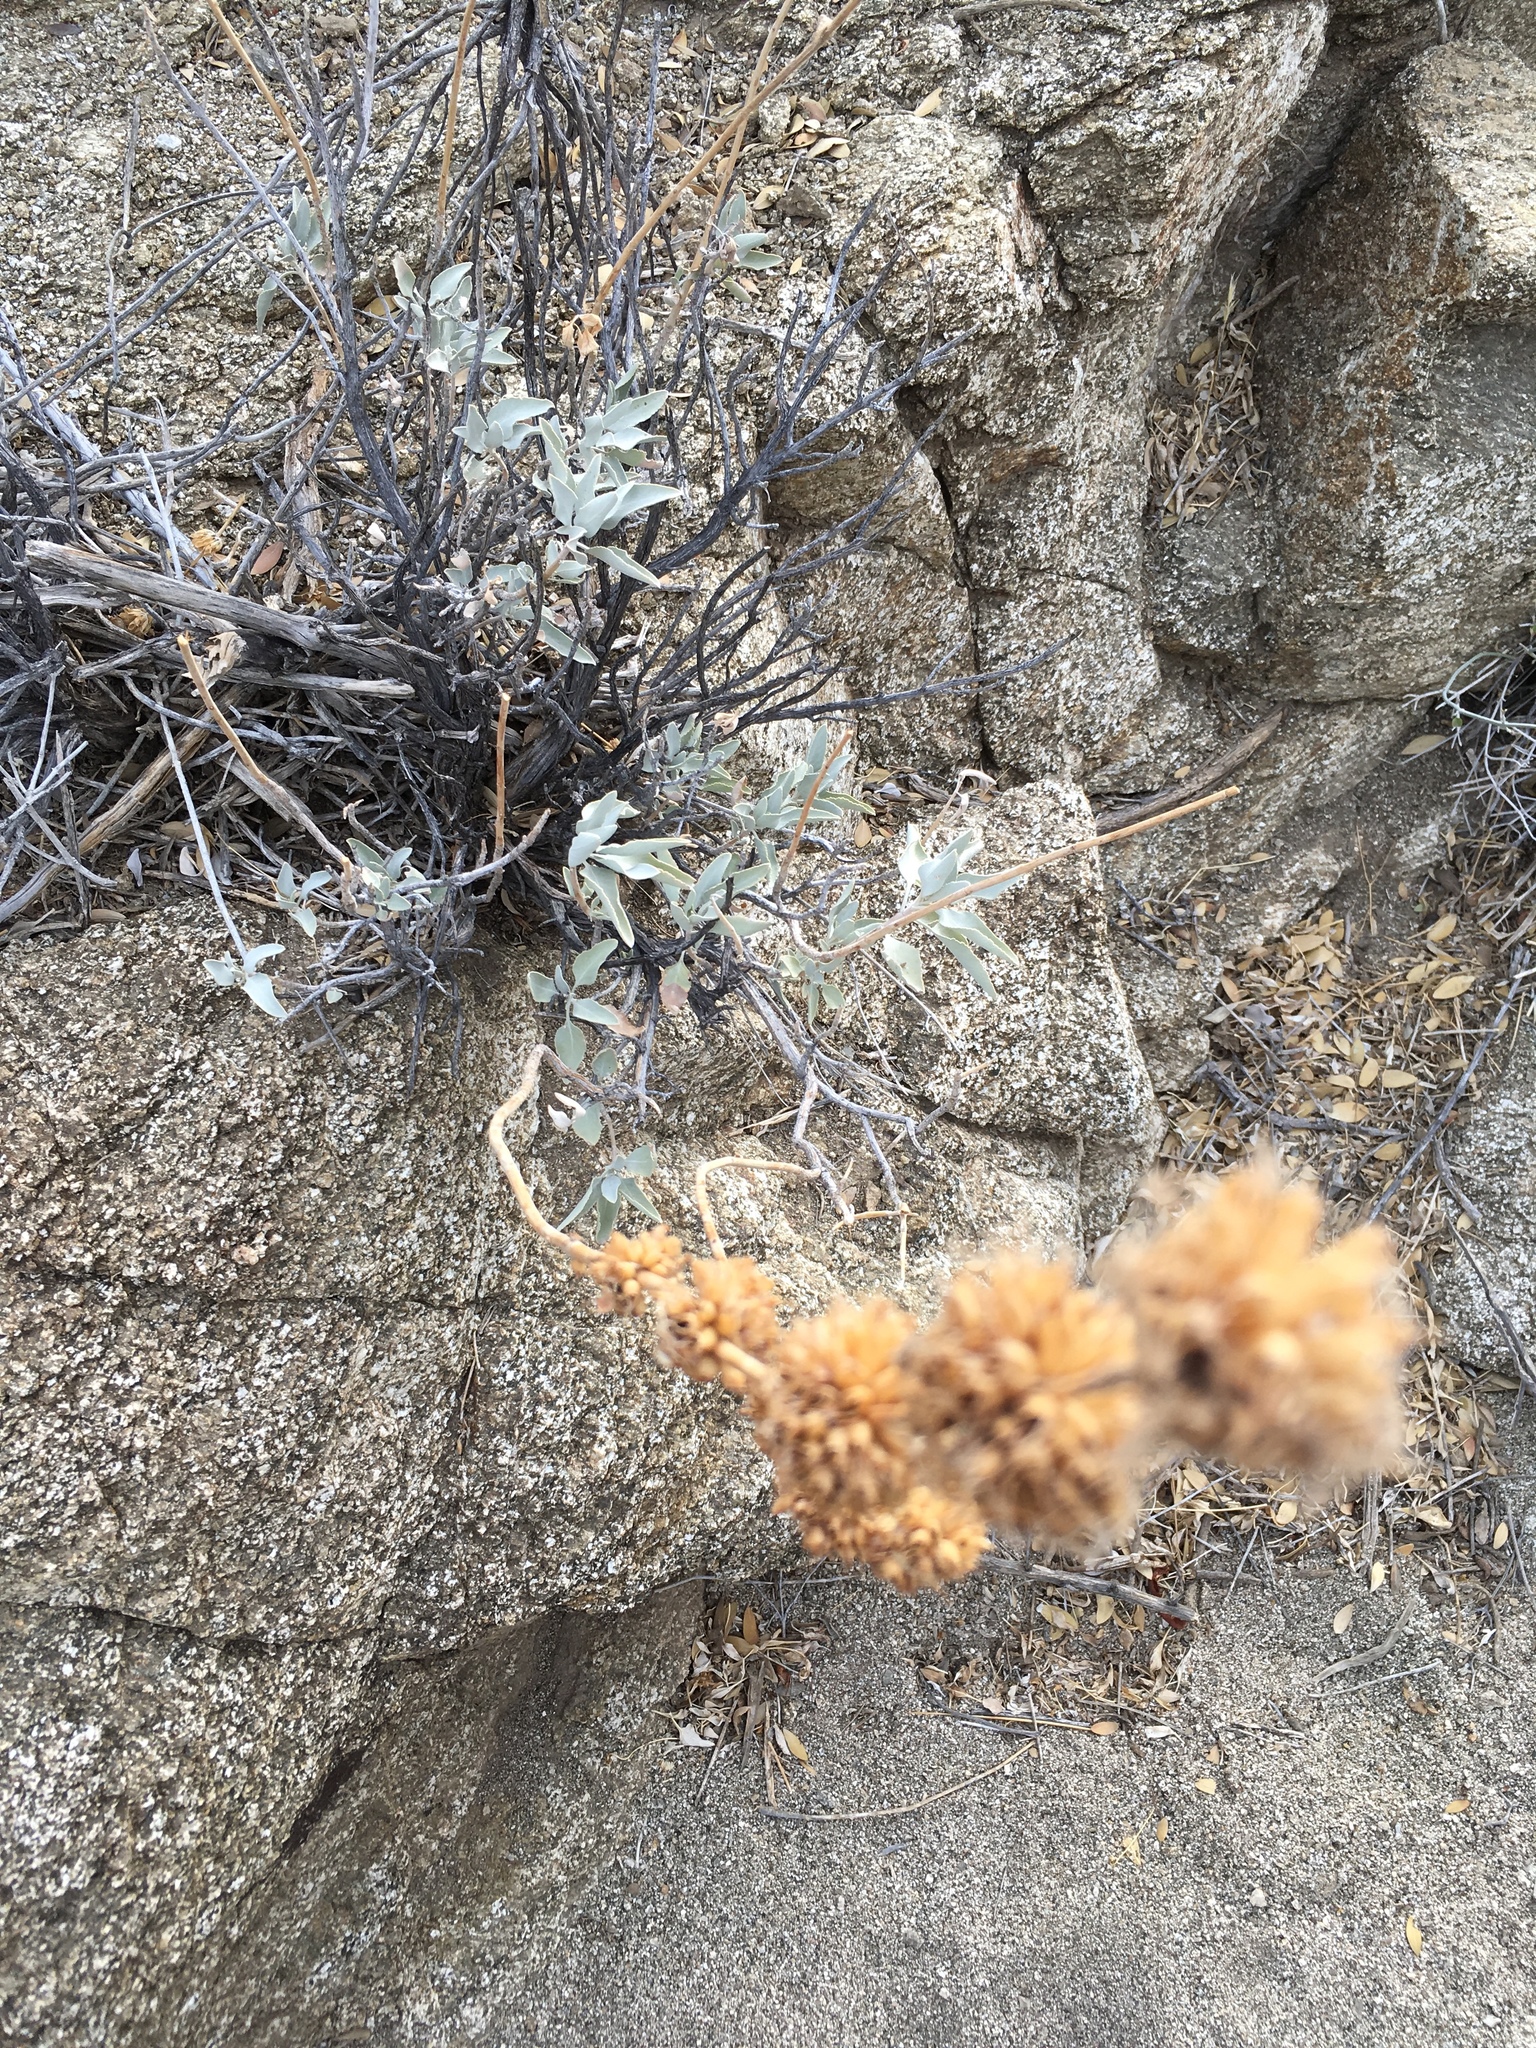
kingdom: Plantae
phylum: Tracheophyta
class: Magnoliopsida
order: Lamiales
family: Lamiaceae
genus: Salvia
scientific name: Salvia vaseyi
